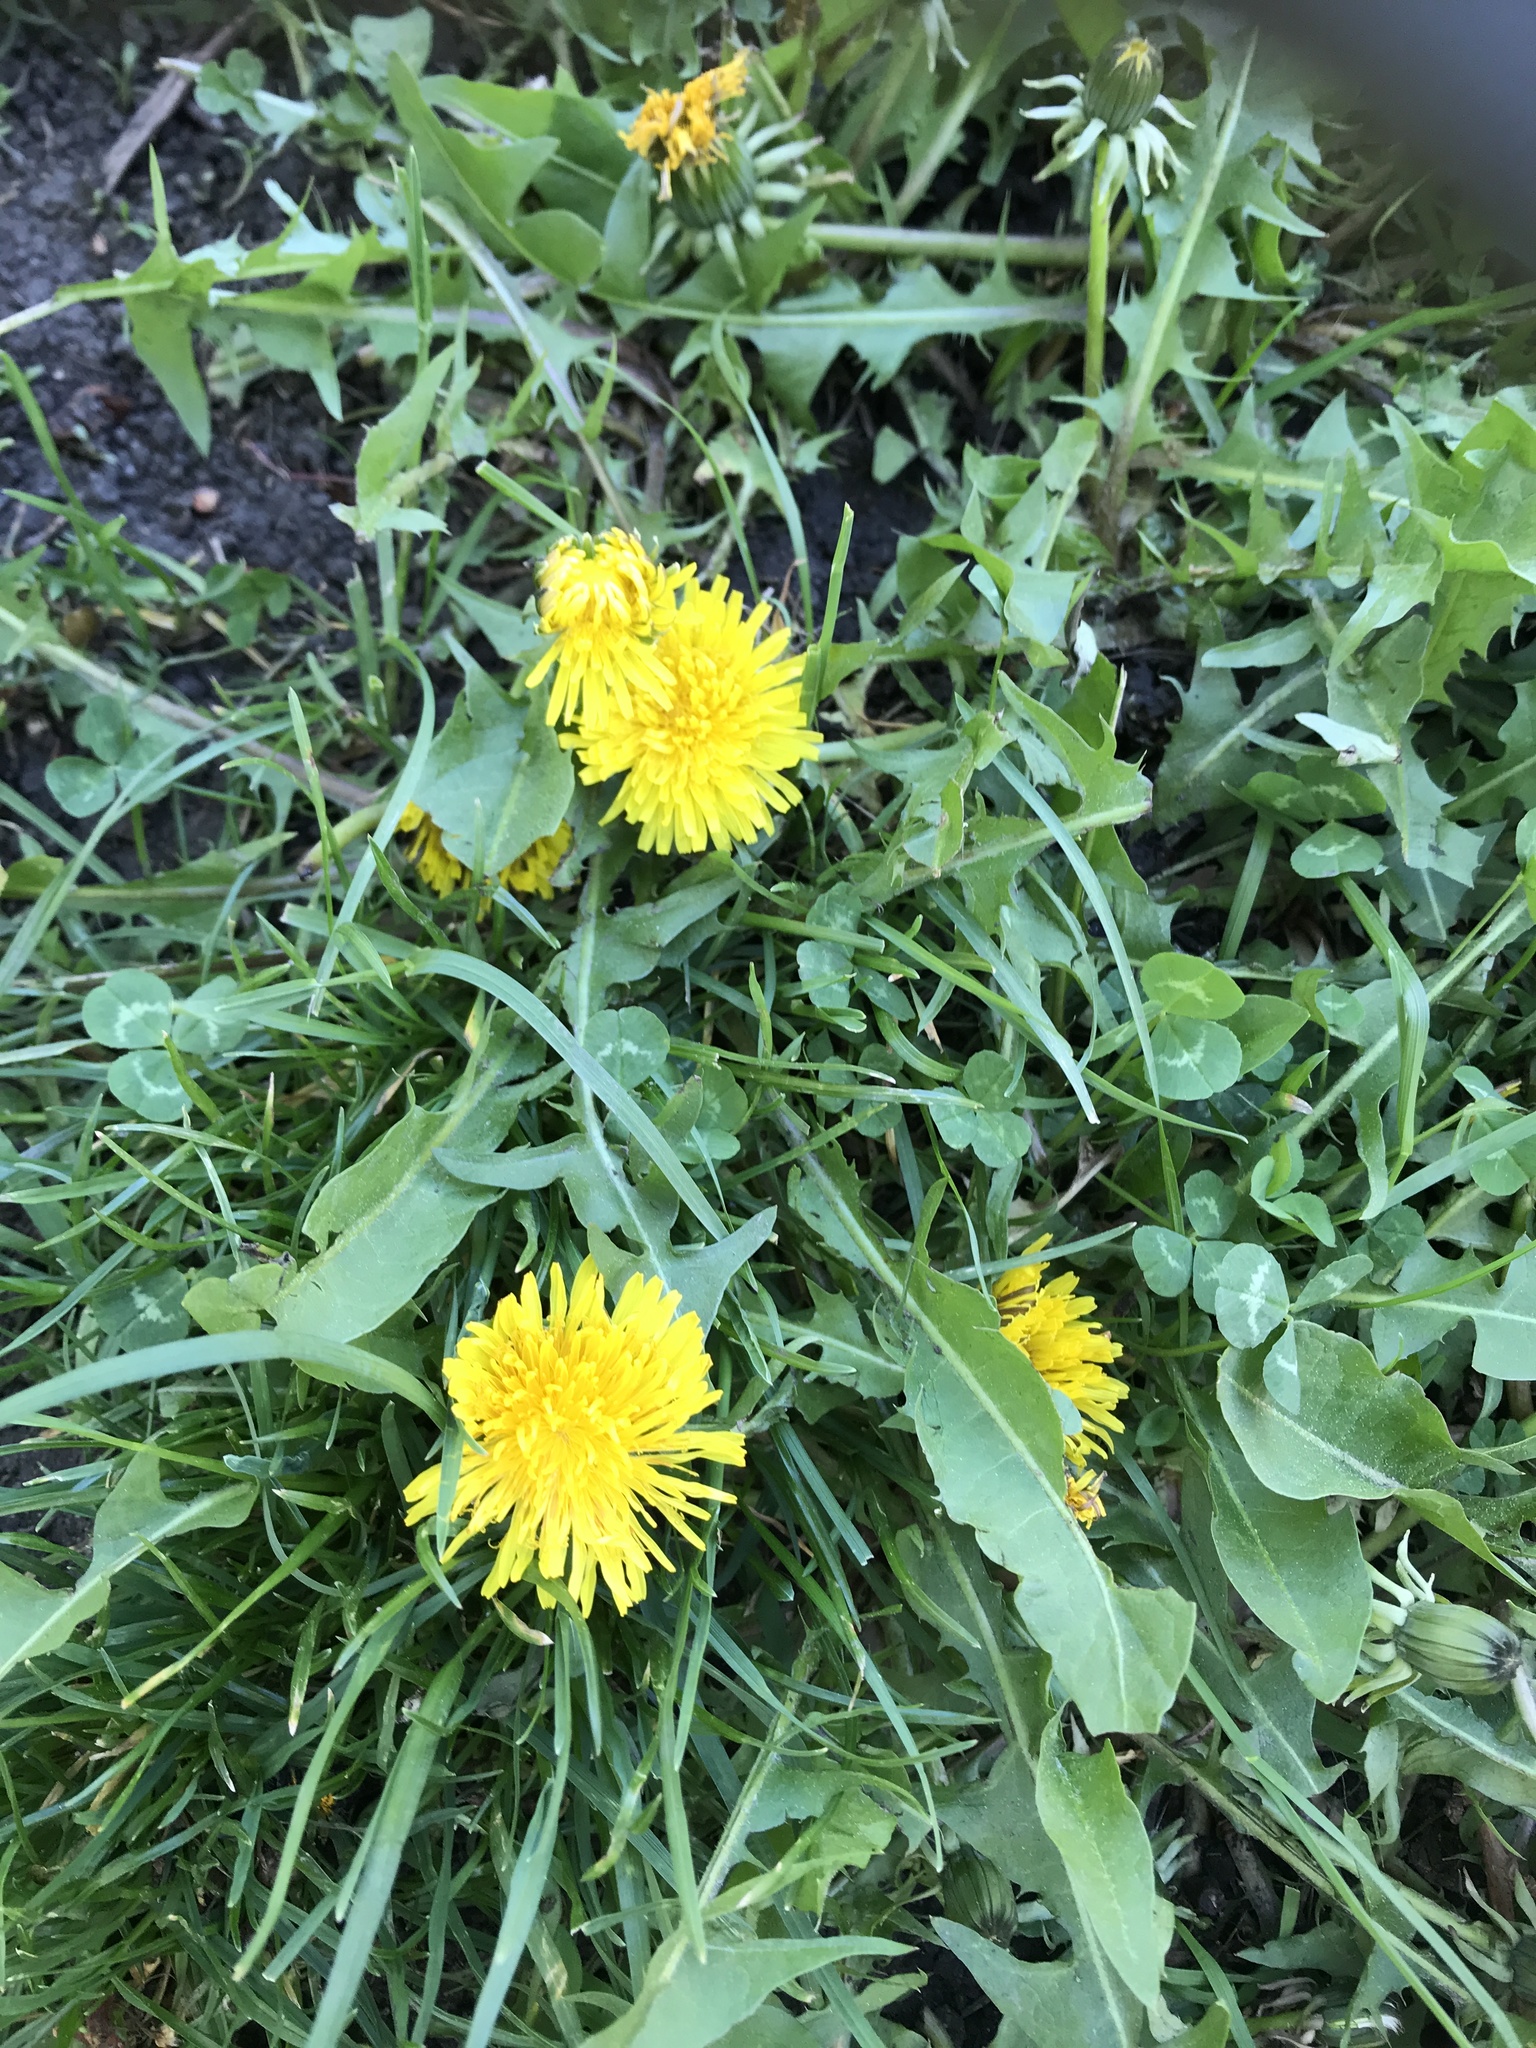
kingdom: Plantae
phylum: Tracheophyta
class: Magnoliopsida
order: Asterales
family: Asteraceae
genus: Taraxacum
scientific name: Taraxacum officinale
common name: Common dandelion
